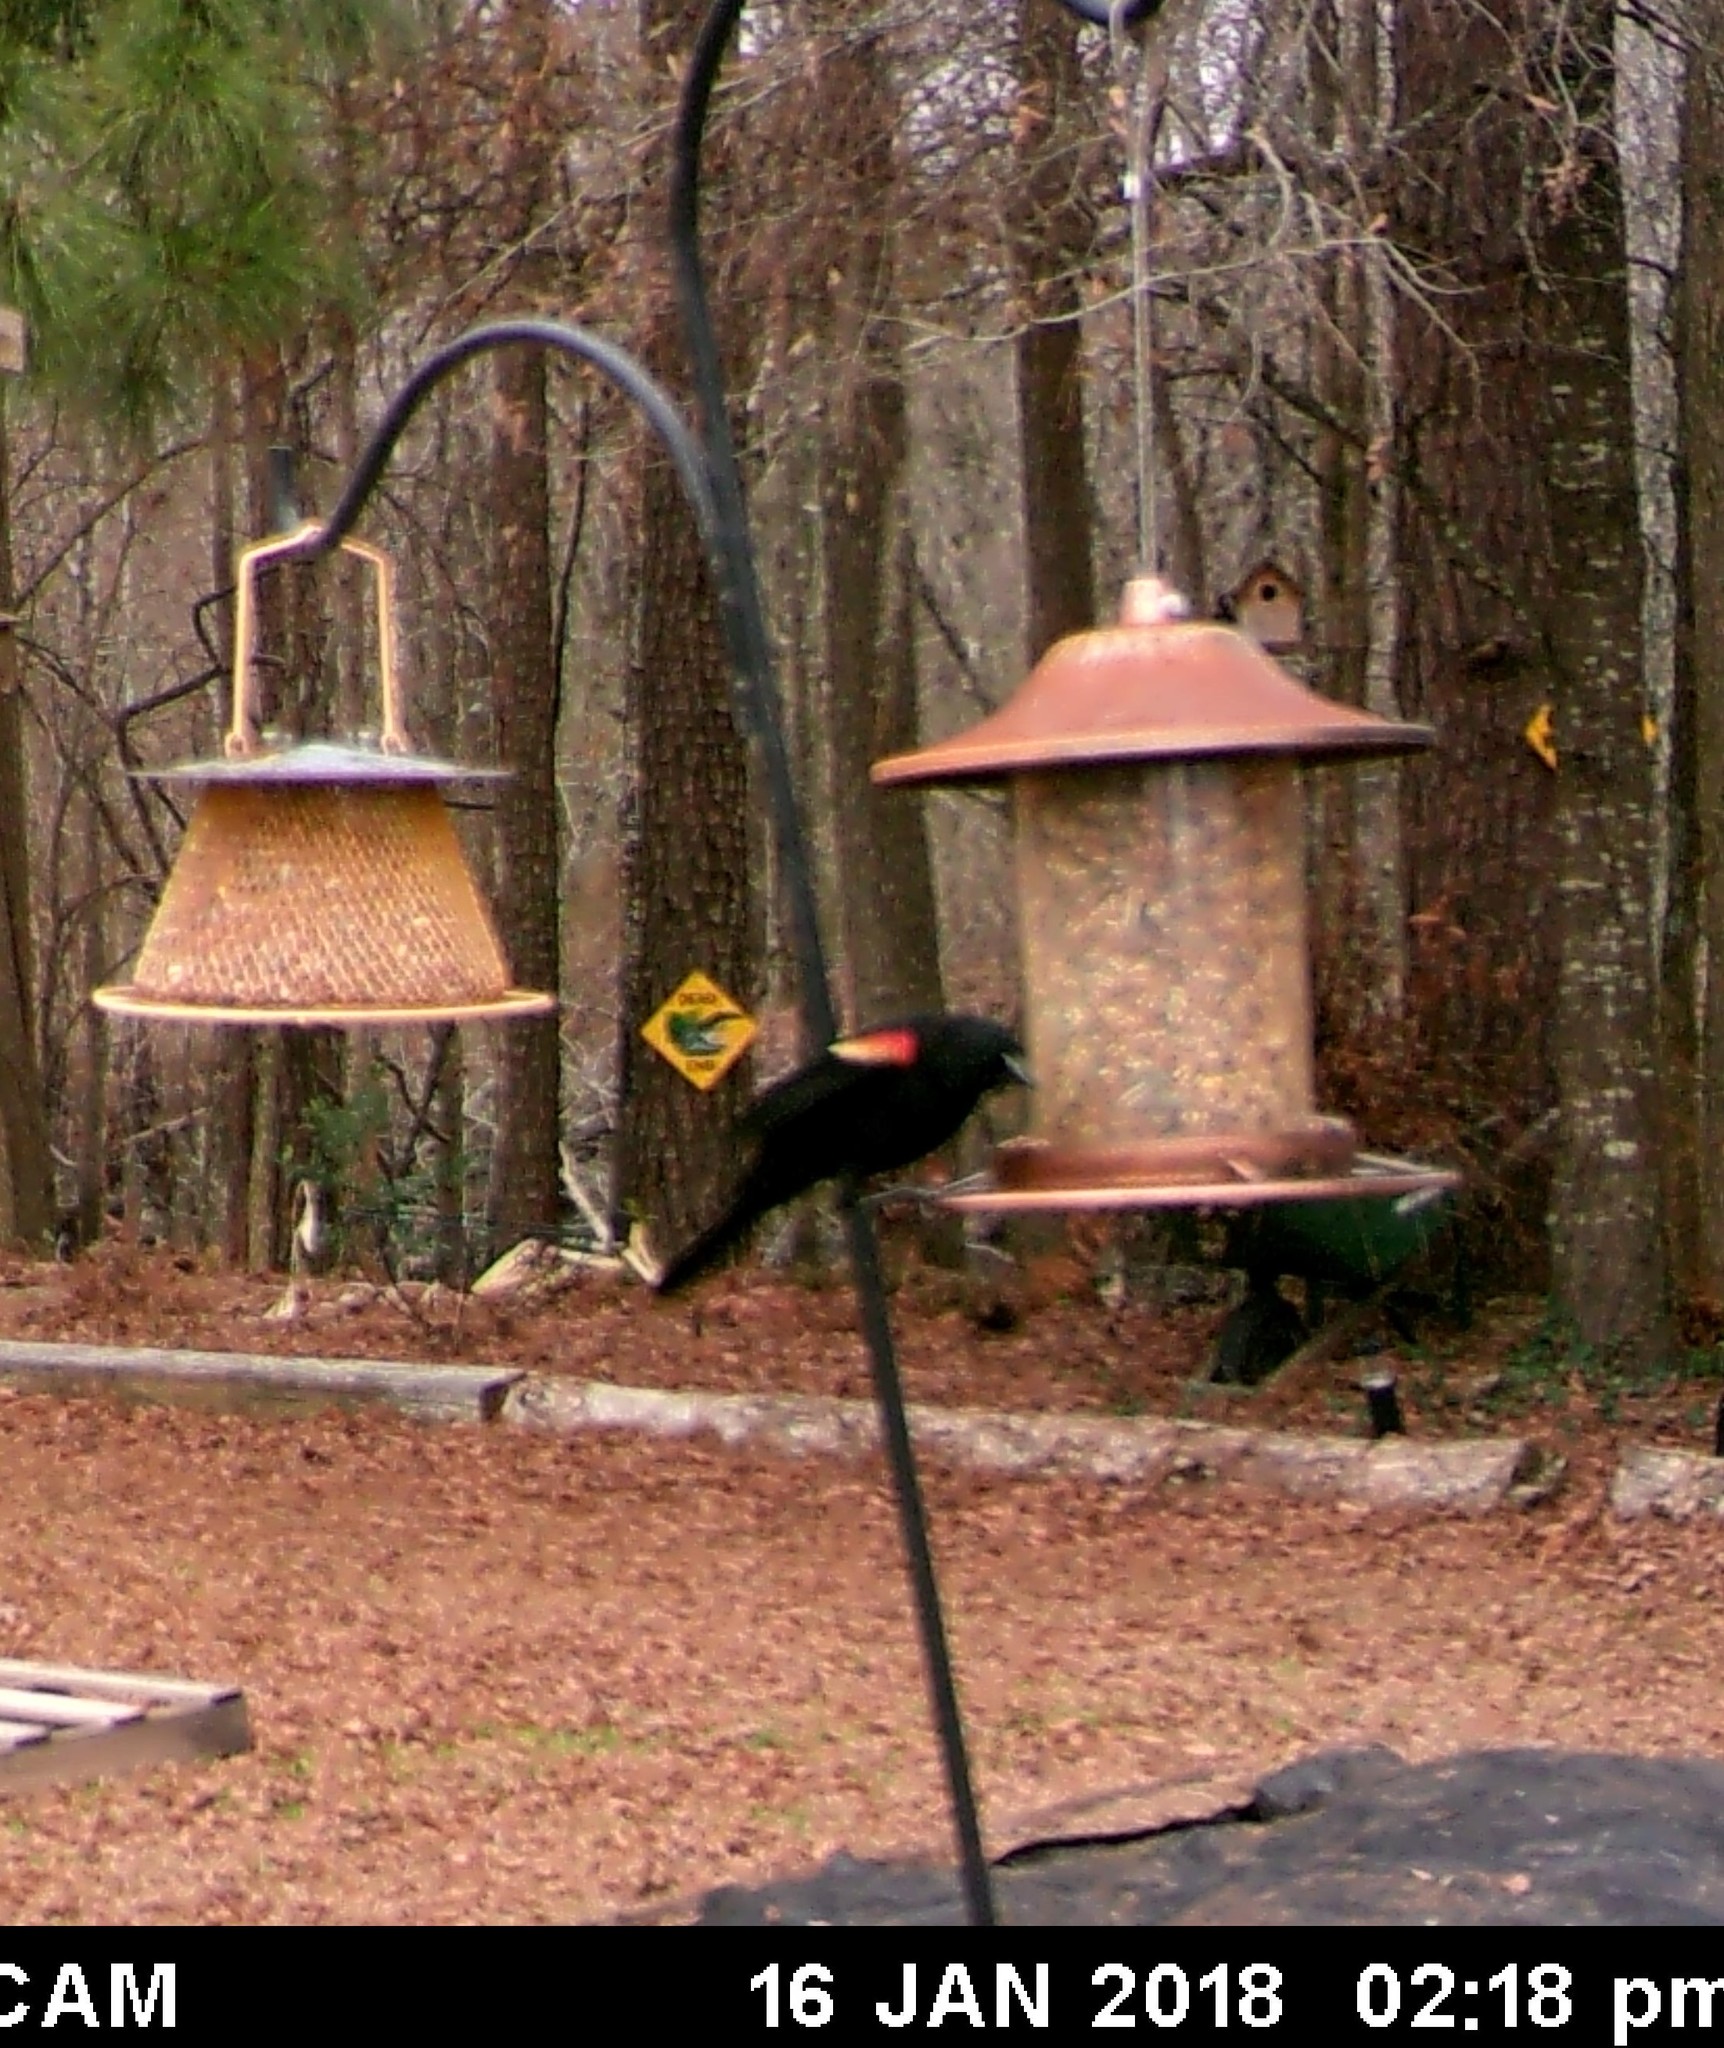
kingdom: Animalia
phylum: Chordata
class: Aves
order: Passeriformes
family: Icteridae
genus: Agelaius
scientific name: Agelaius phoeniceus
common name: Red-winged blackbird
